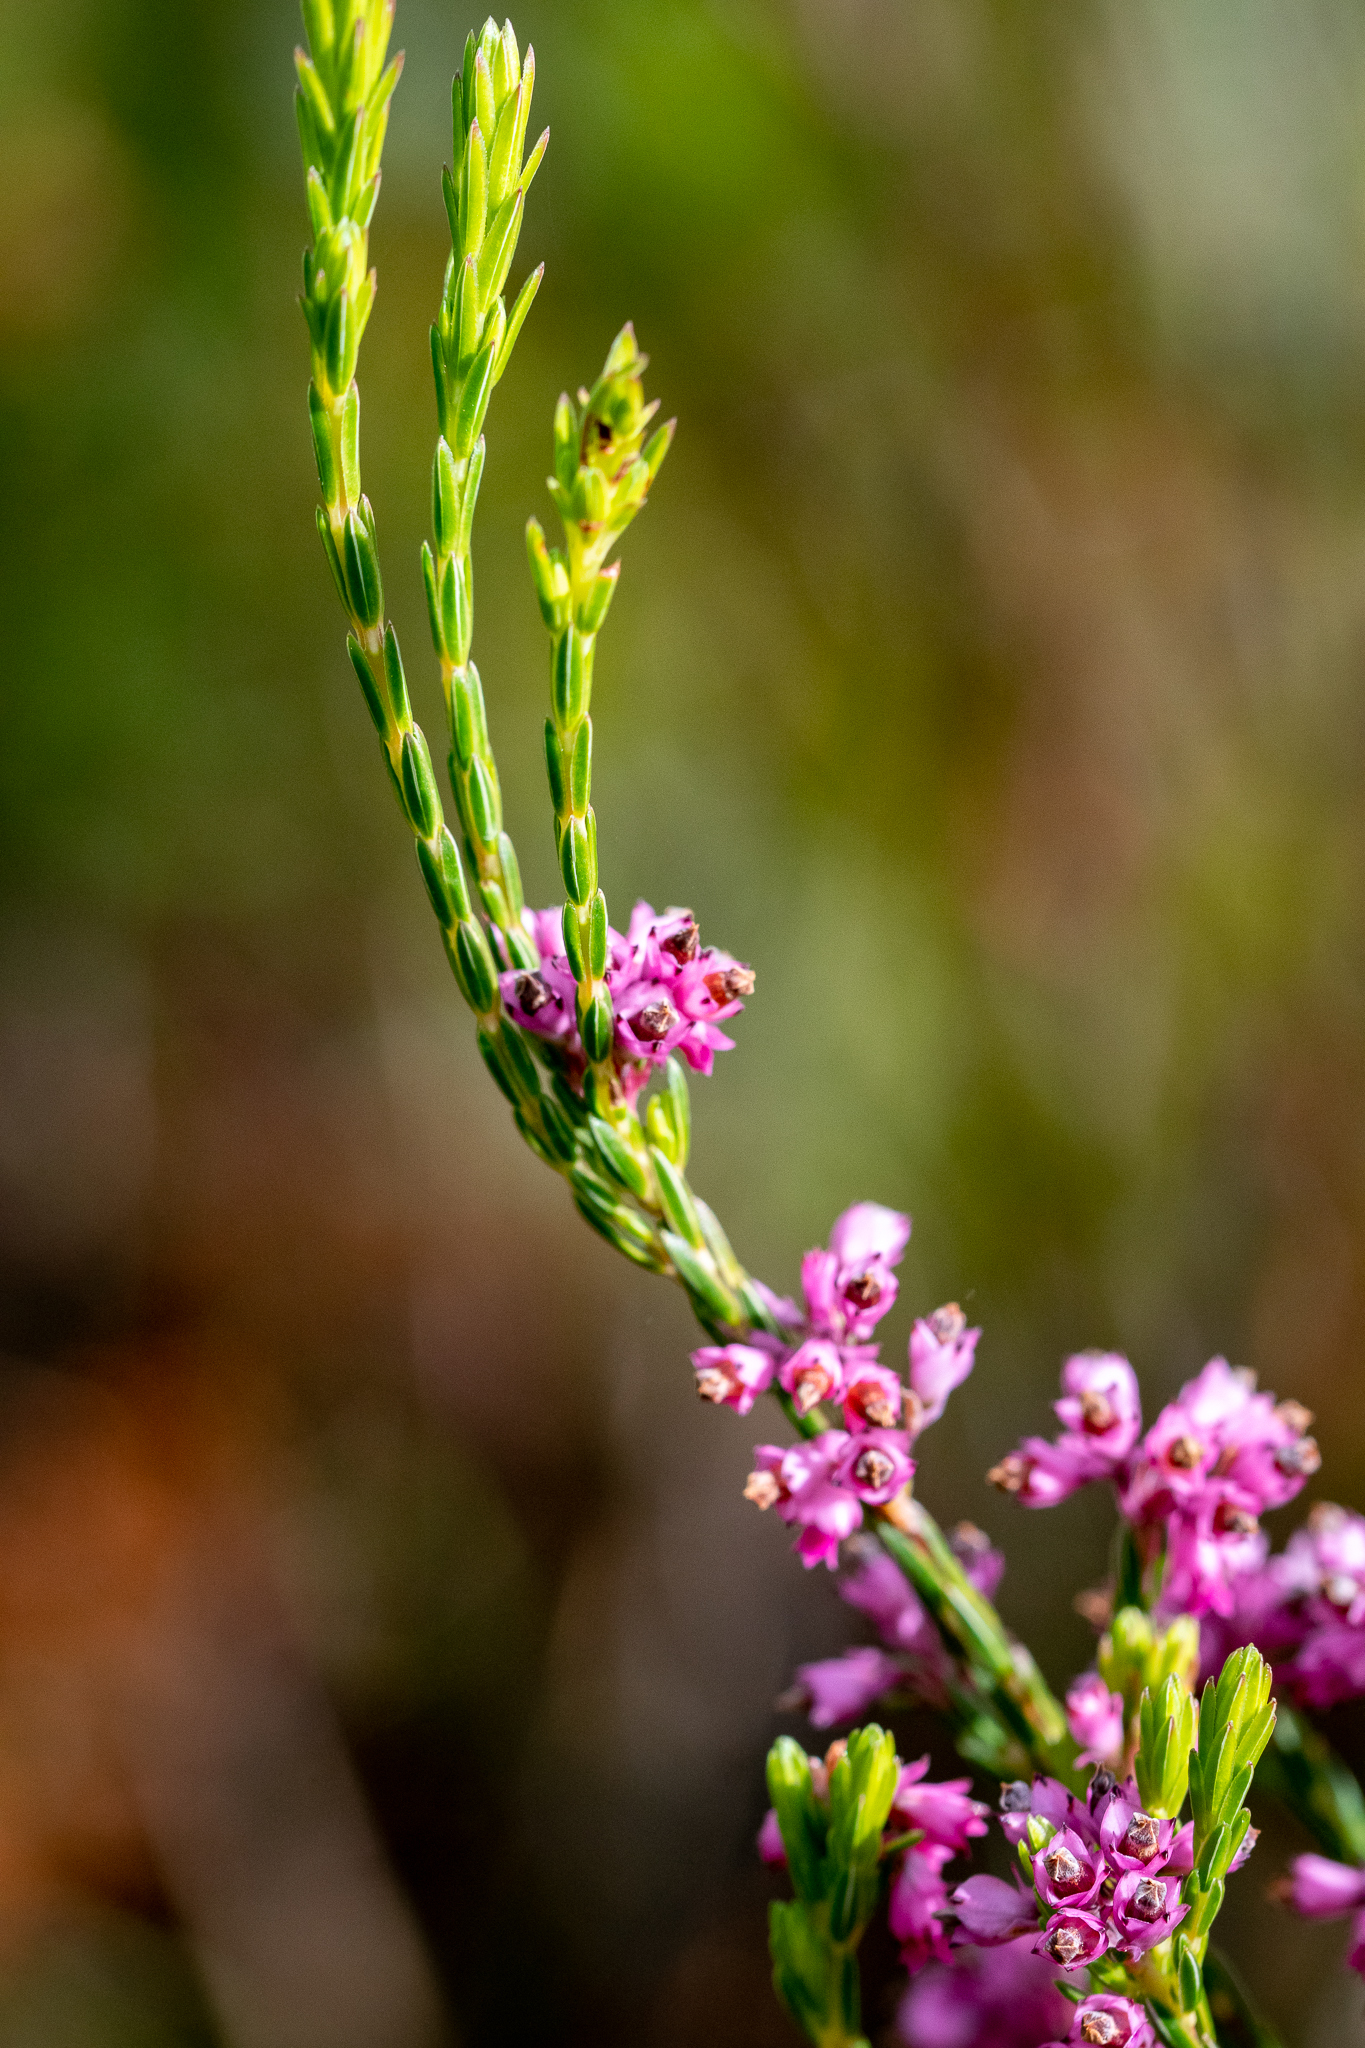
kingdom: Plantae
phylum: Tracheophyta
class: Magnoliopsida
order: Ericales
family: Ericaceae
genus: Erica
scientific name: Erica corifolia
